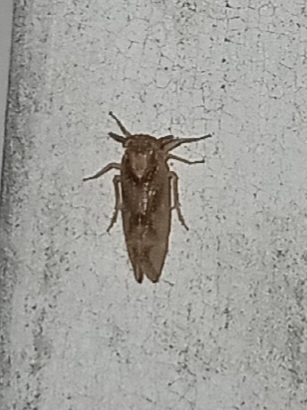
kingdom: Animalia
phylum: Arthropoda
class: Insecta
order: Hemiptera
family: Delphacidae
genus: Stobaera
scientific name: Stobaera pallida
